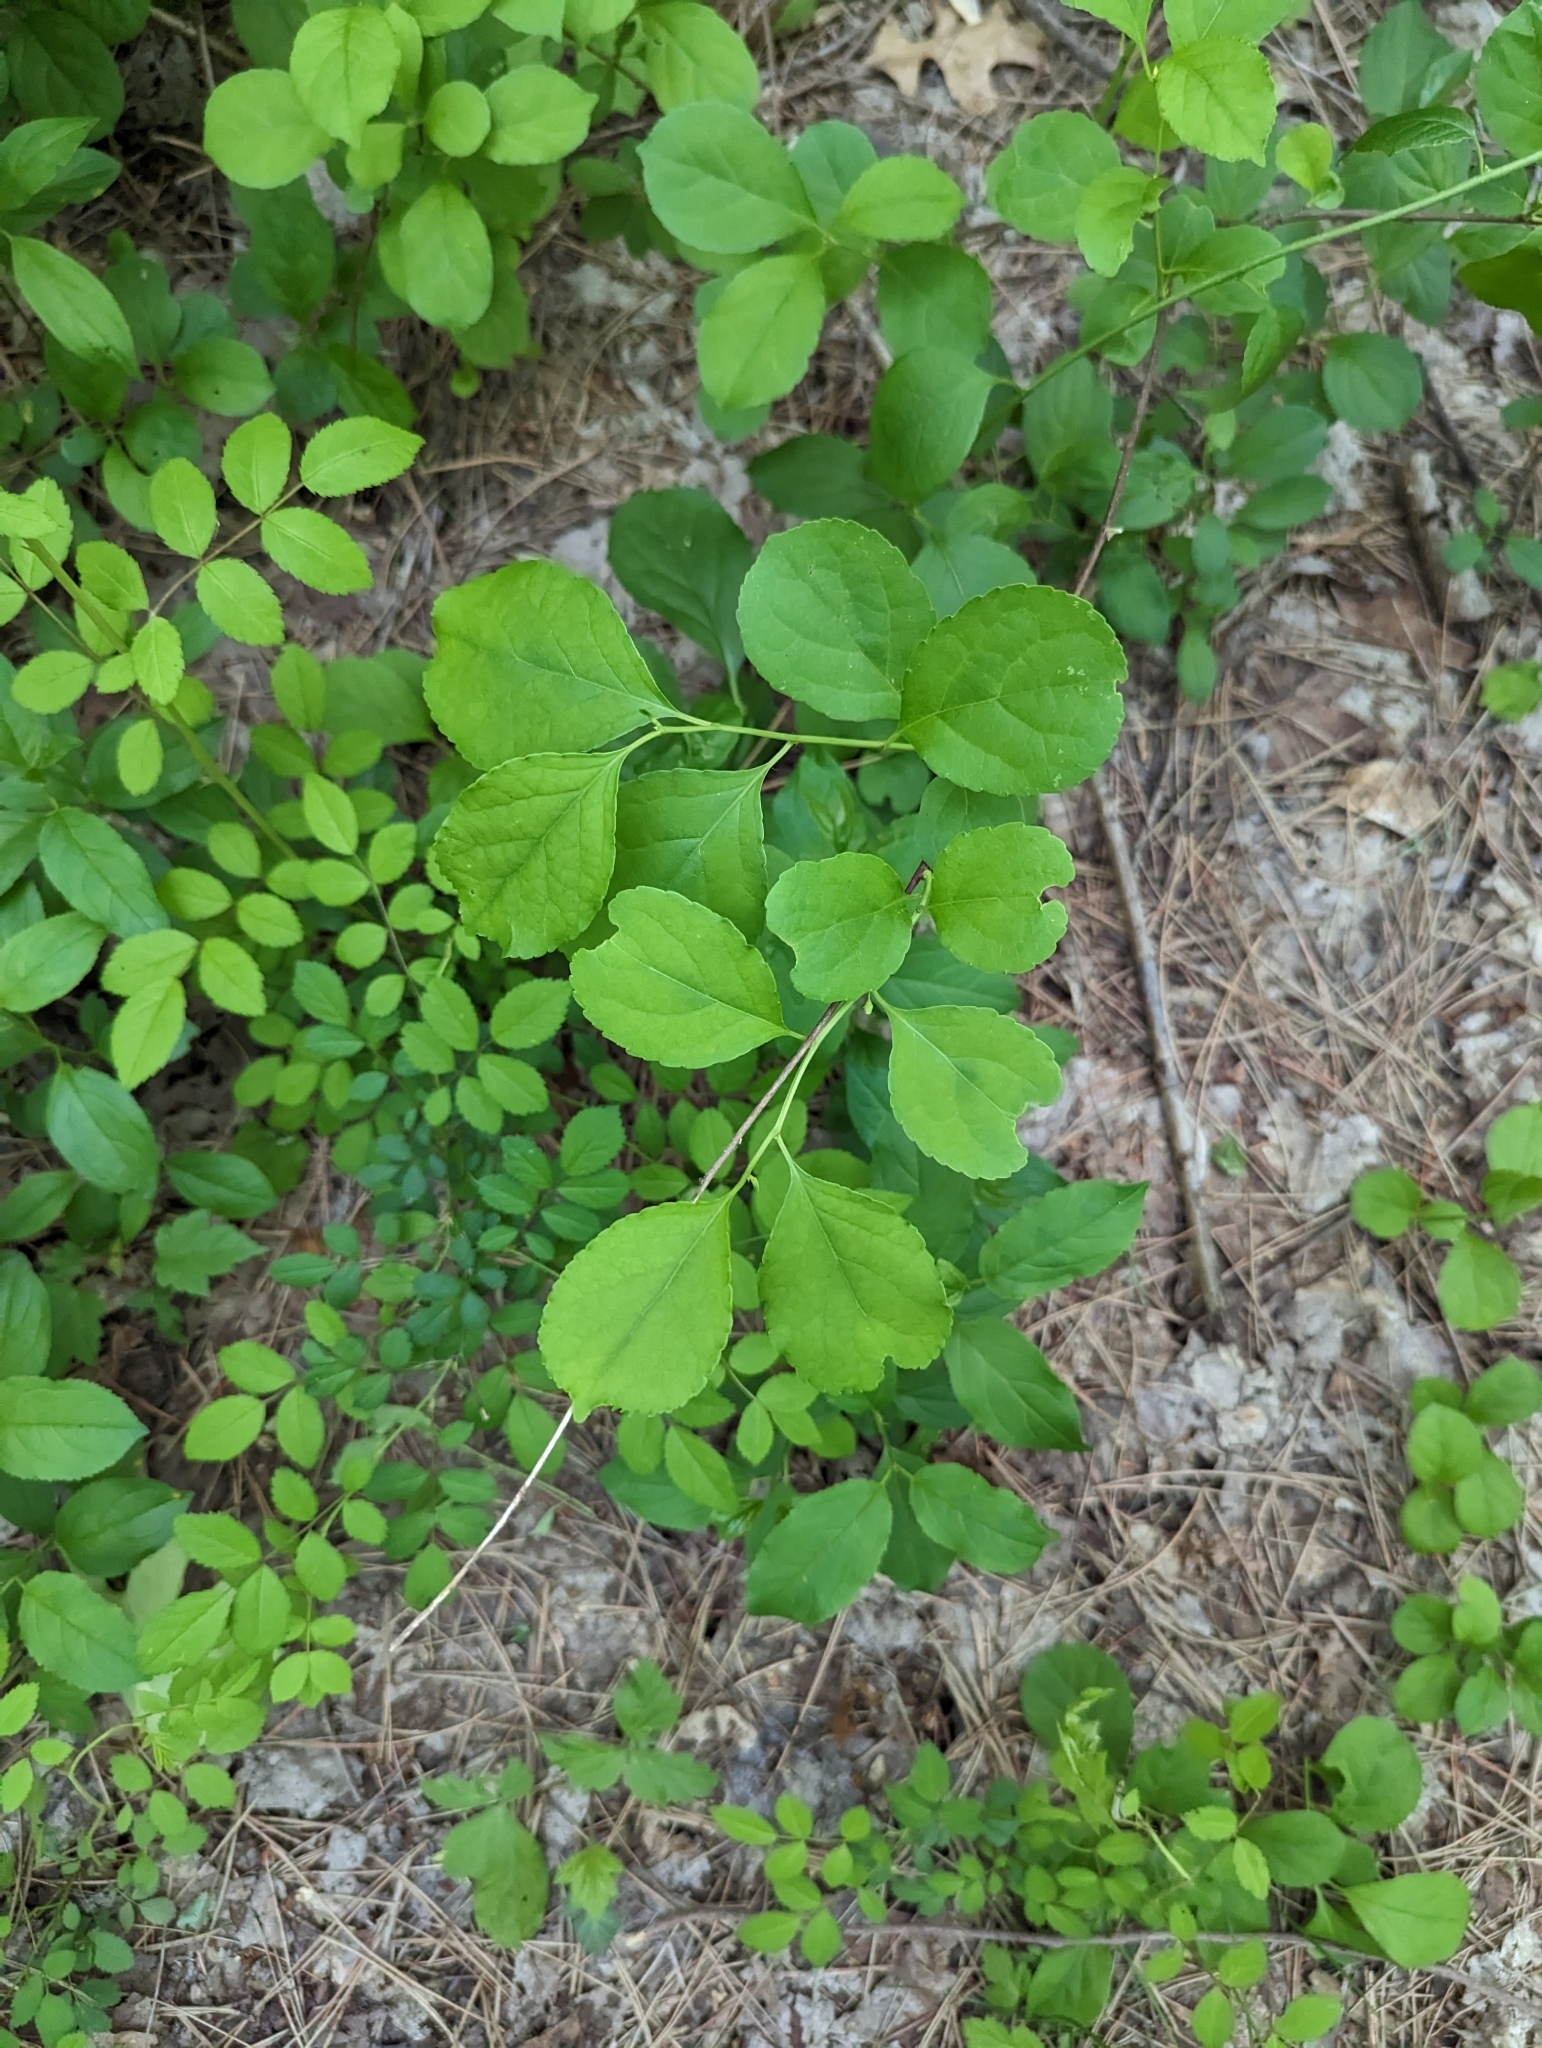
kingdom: Plantae
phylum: Tracheophyta
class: Magnoliopsida
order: Celastrales
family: Celastraceae
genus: Celastrus
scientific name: Celastrus orbiculatus
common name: Oriental bittersweet
